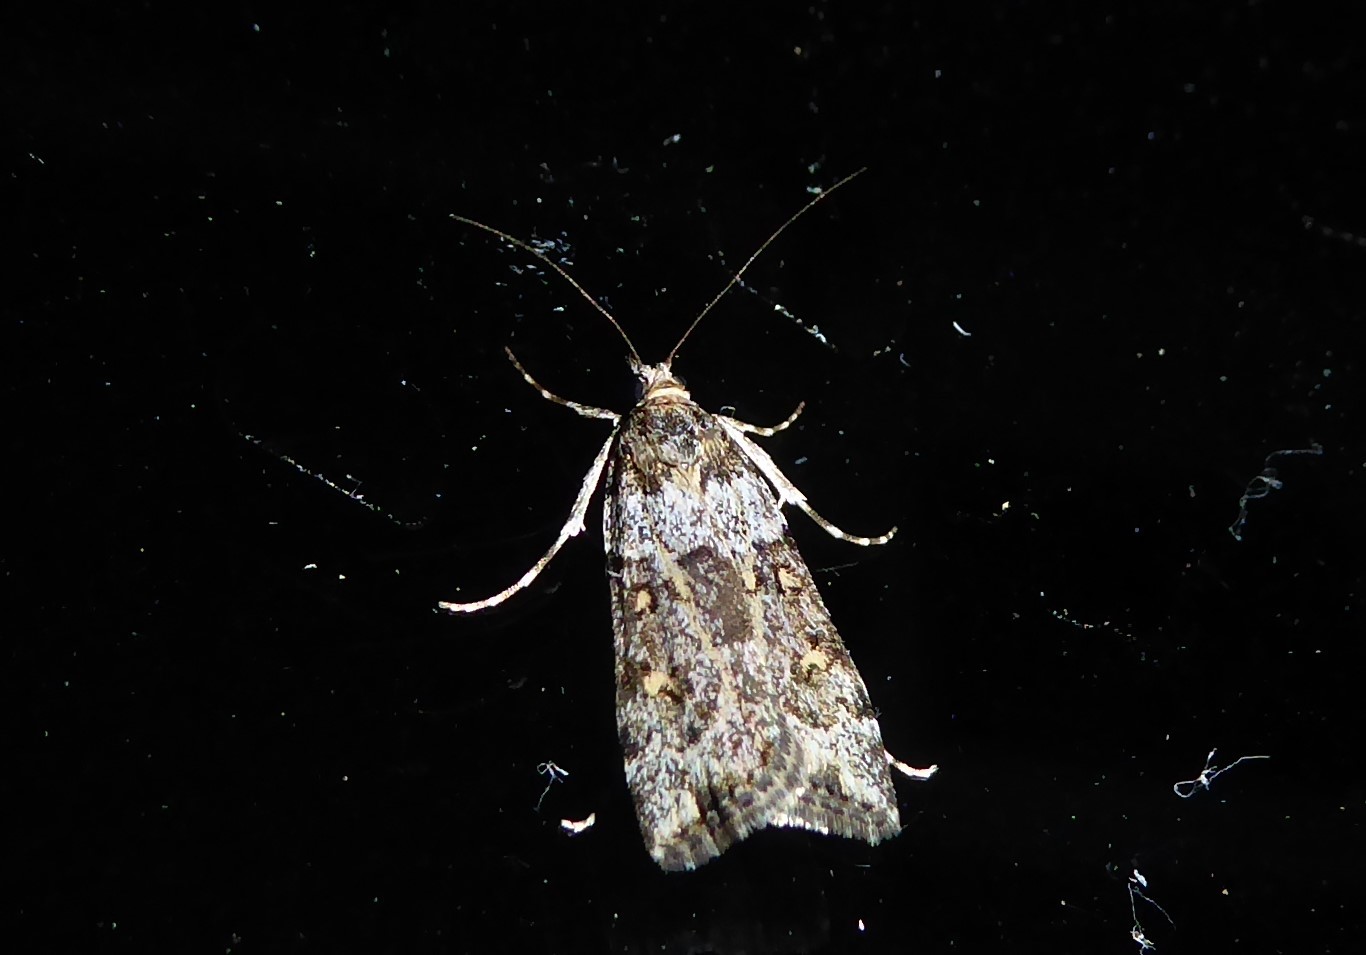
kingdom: Animalia
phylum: Arthropoda
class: Insecta
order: Lepidoptera
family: Crambidae
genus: Eudonia
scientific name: Eudonia diphtheralis
